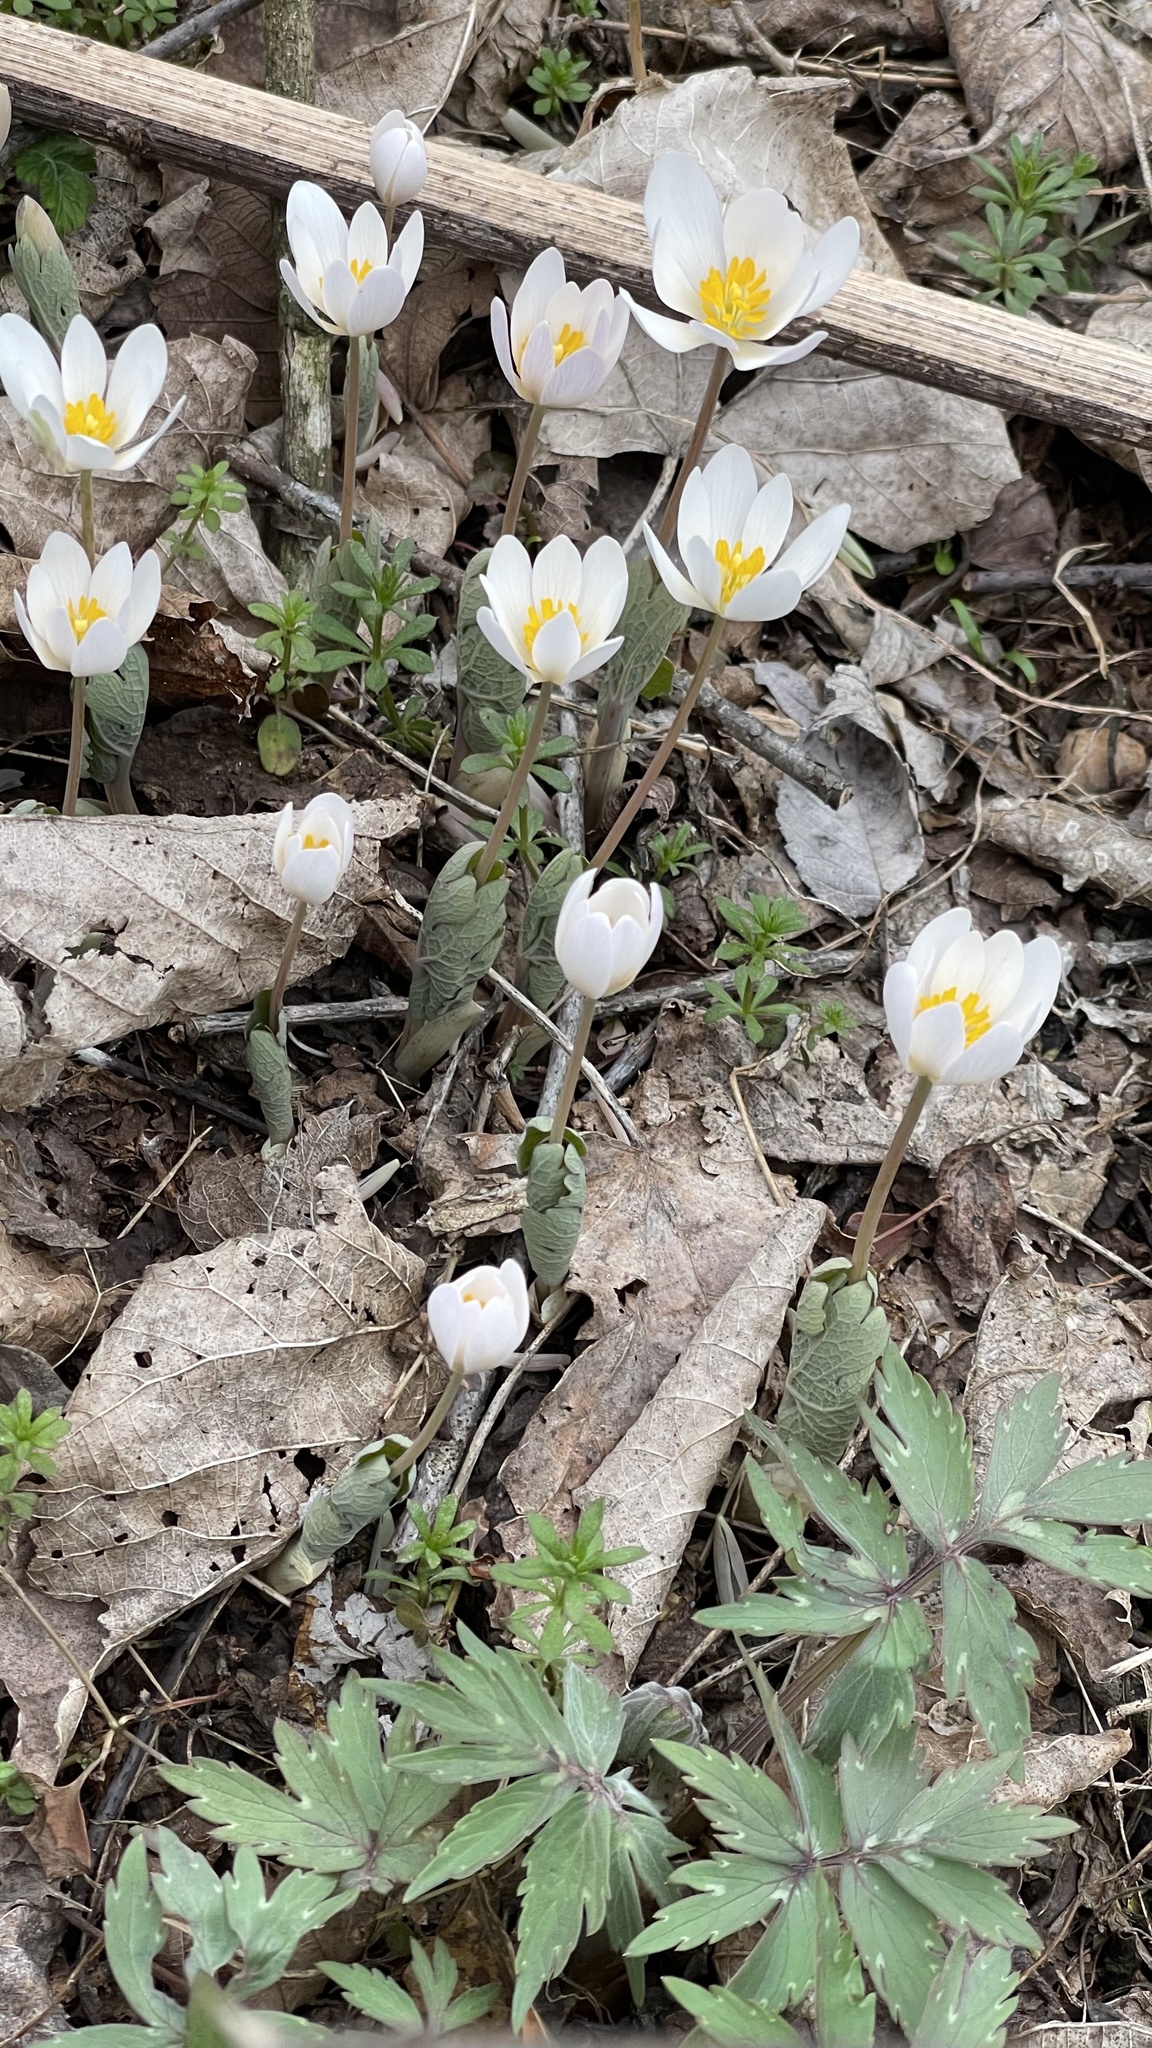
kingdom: Plantae
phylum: Tracheophyta
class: Magnoliopsida
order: Ranunculales
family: Papaveraceae
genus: Sanguinaria
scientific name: Sanguinaria canadensis
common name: Bloodroot
